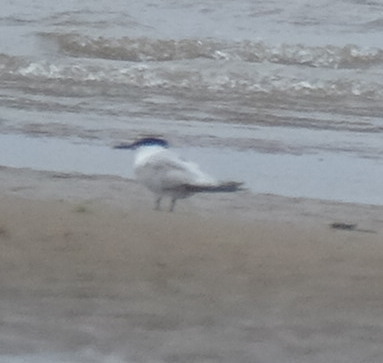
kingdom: Animalia
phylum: Chordata
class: Aves
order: Charadriiformes
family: Laridae
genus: Thalasseus
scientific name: Thalasseus sandvicensis
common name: Sandwich tern
